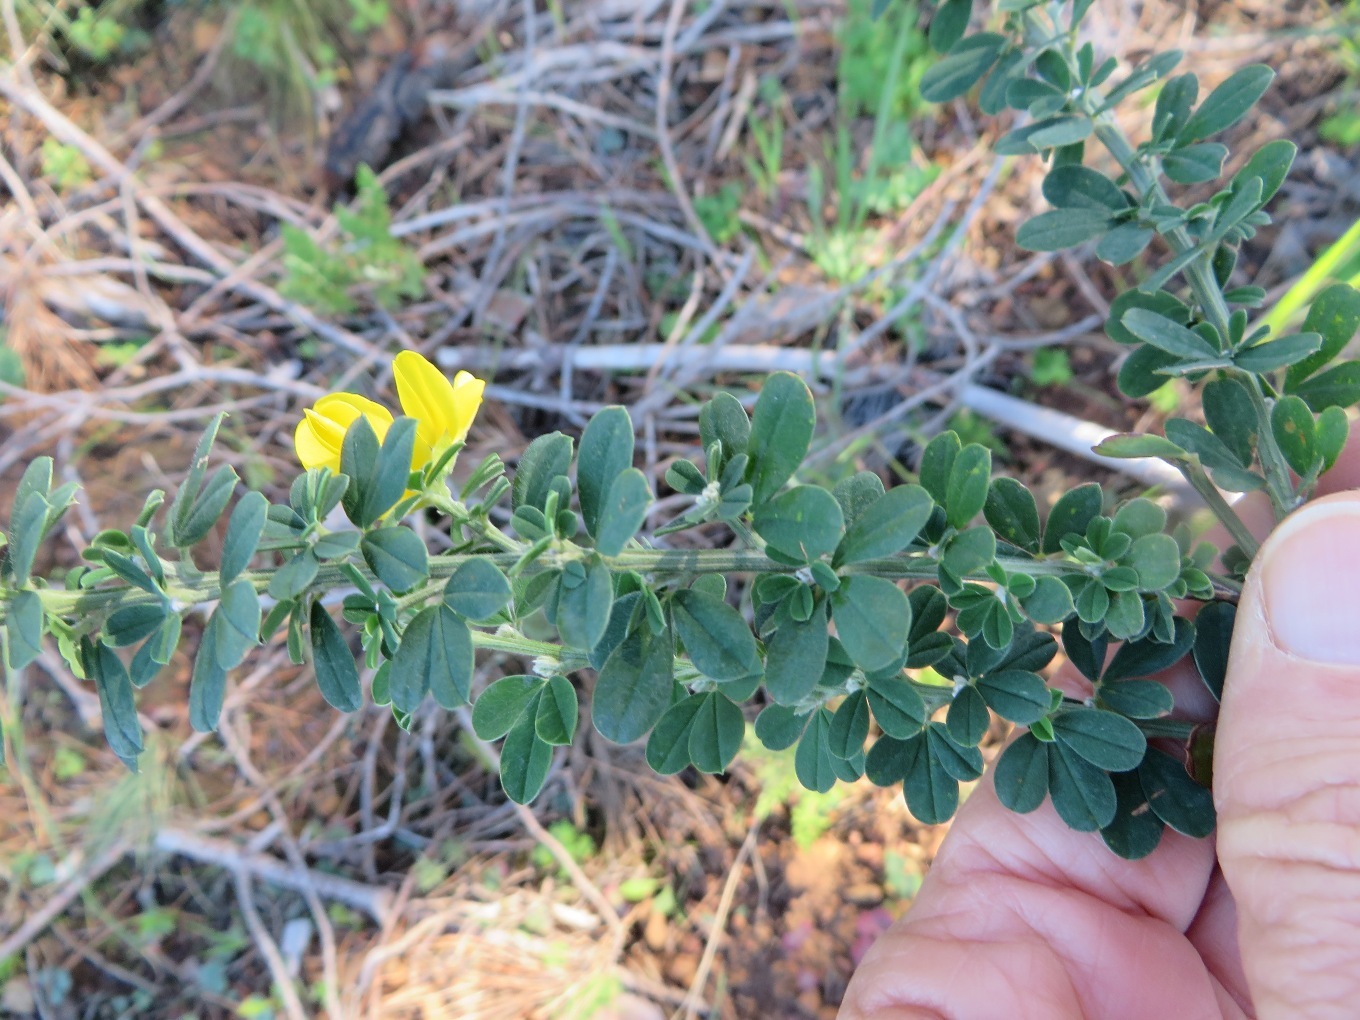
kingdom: Plantae
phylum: Tracheophyta
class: Magnoliopsida
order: Fabales
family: Fabaceae
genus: Genista
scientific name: Genista monspessulana
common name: Montpellier broom
